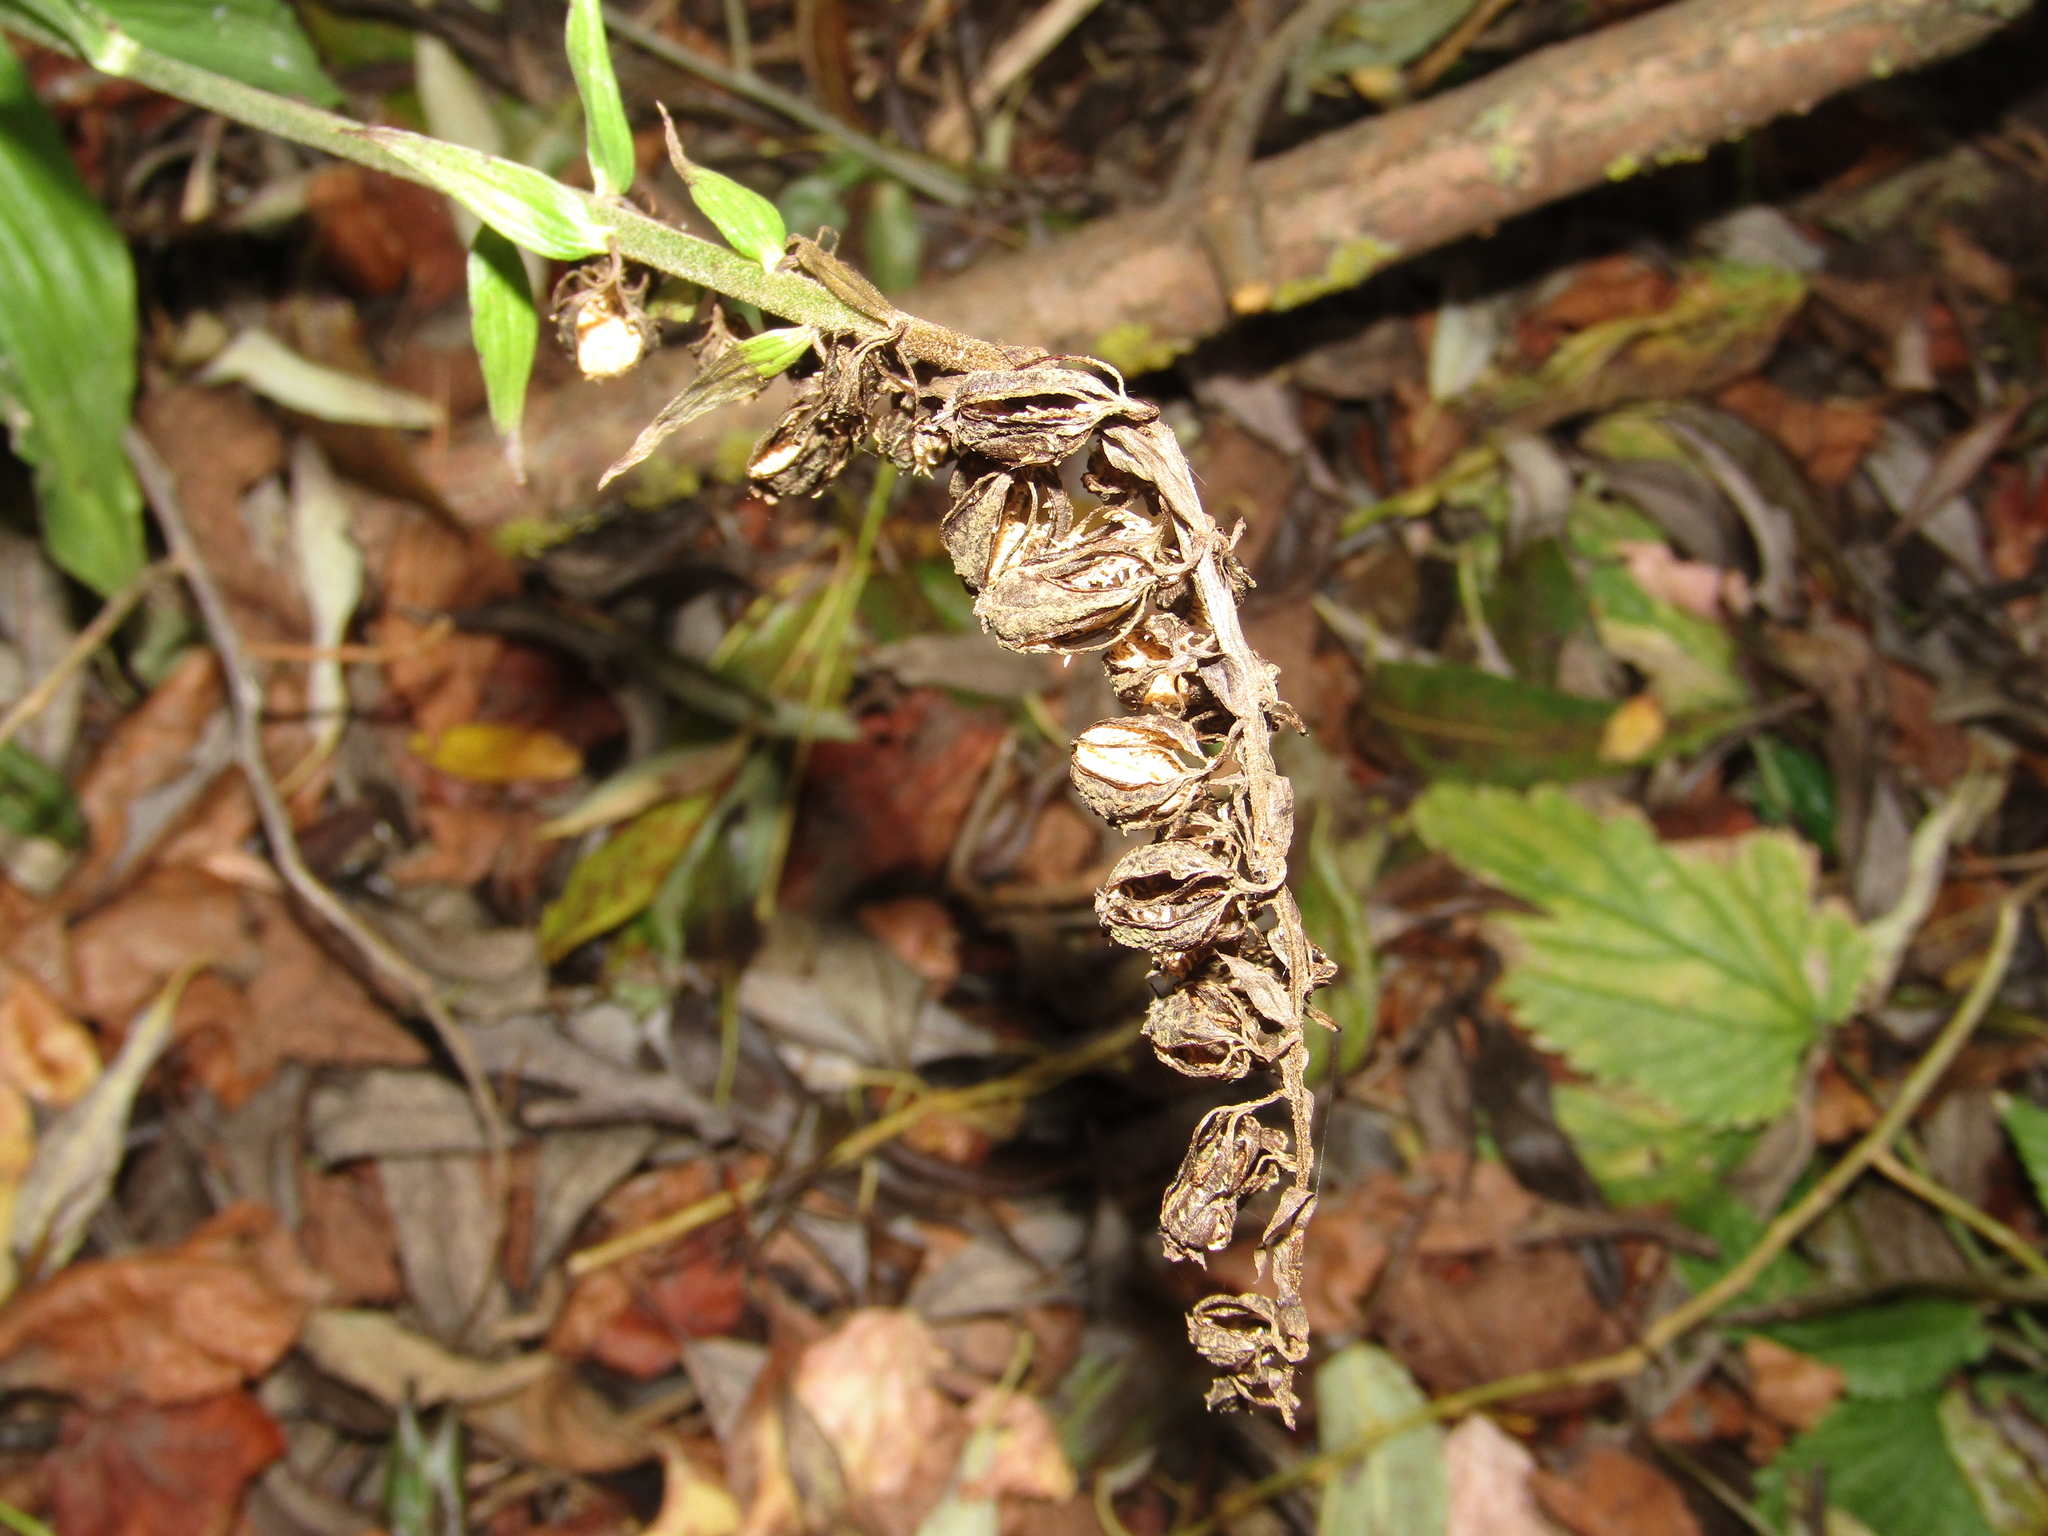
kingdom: Plantae
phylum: Tracheophyta
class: Liliopsida
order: Asparagales
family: Orchidaceae
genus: Epipactis
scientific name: Epipactis helleborine
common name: Broad-leaved helleborine
